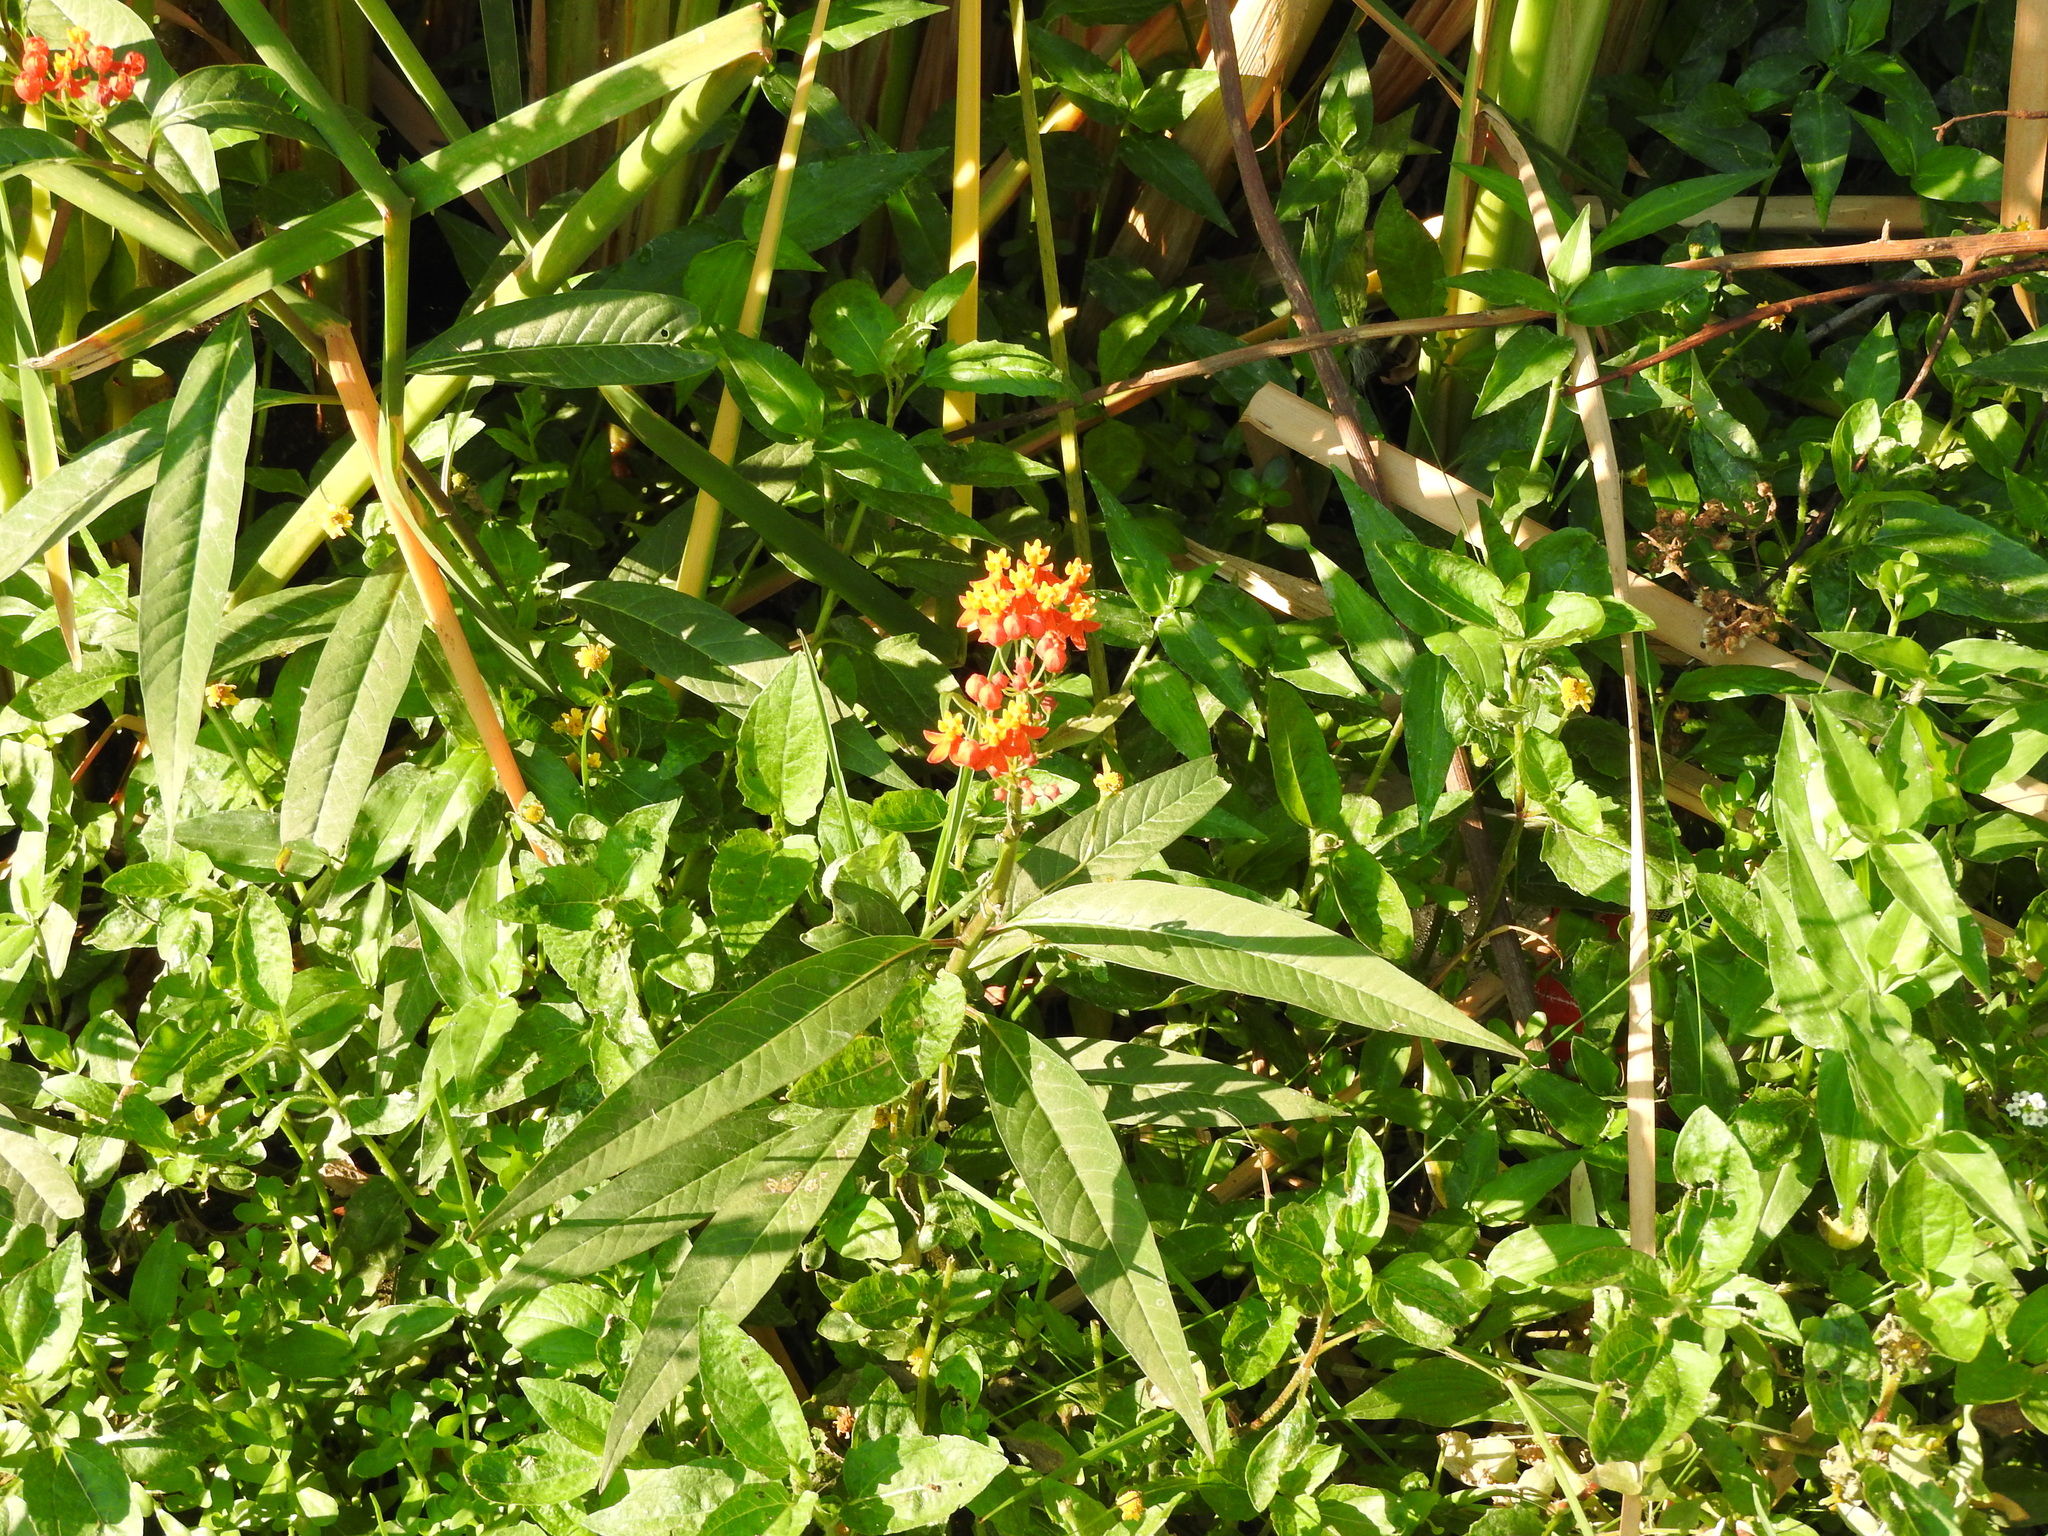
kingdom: Plantae
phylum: Tracheophyta
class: Magnoliopsida
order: Gentianales
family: Apocynaceae
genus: Asclepias
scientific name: Asclepias curassavica
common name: Bloodflower
